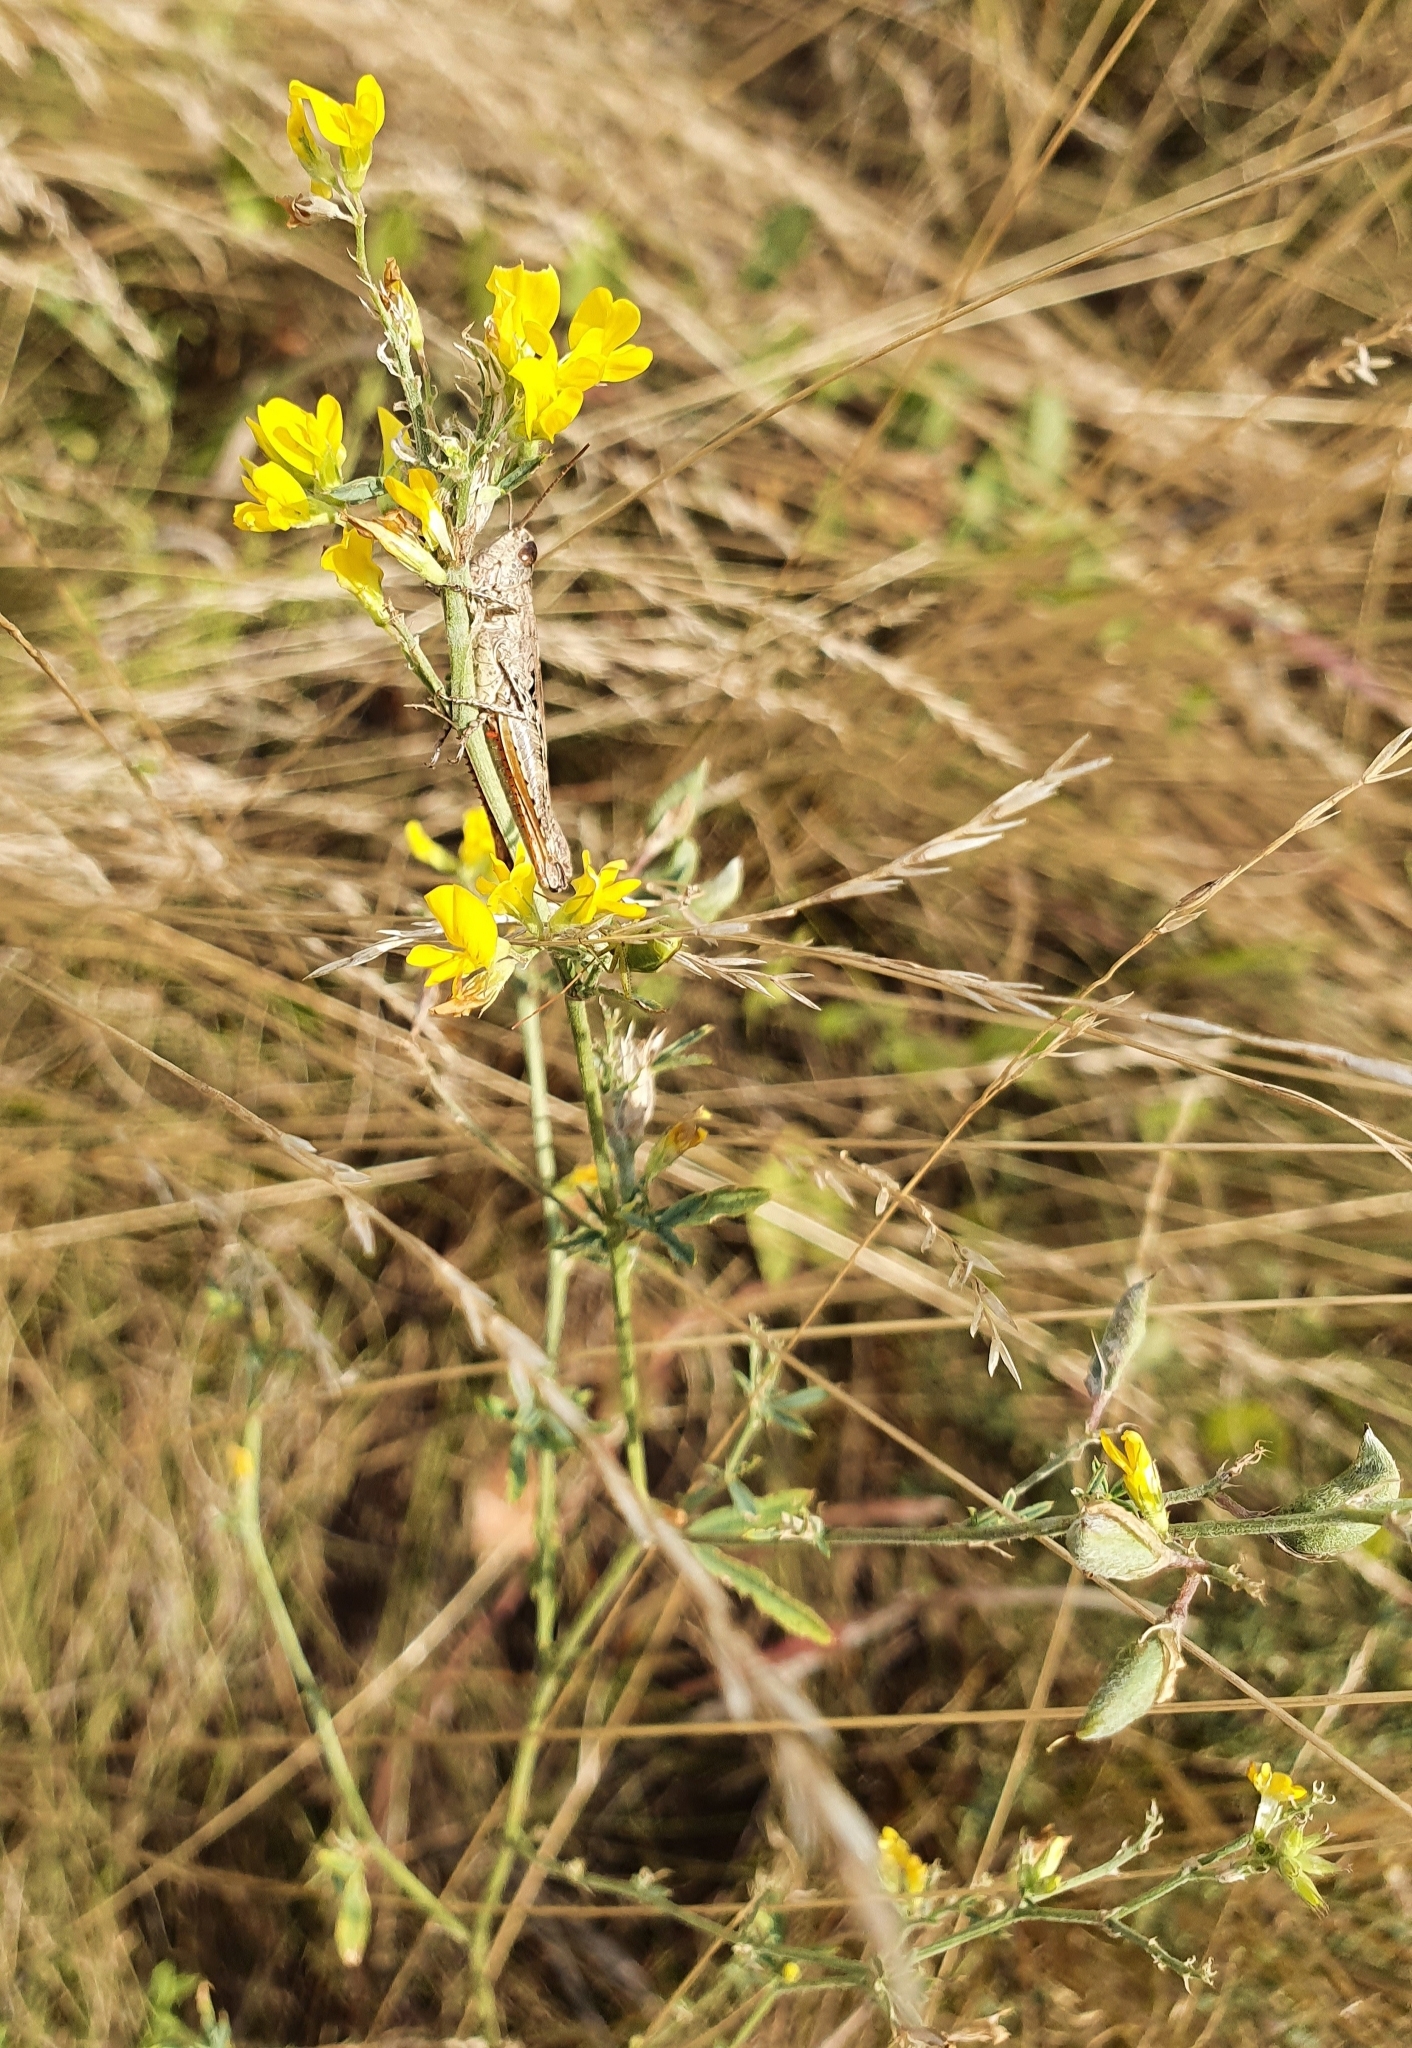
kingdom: Plantae
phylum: Tracheophyta
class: Magnoliopsida
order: Fabales
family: Fabaceae
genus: Medicago
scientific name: Medicago falcata
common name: Sickle medick
